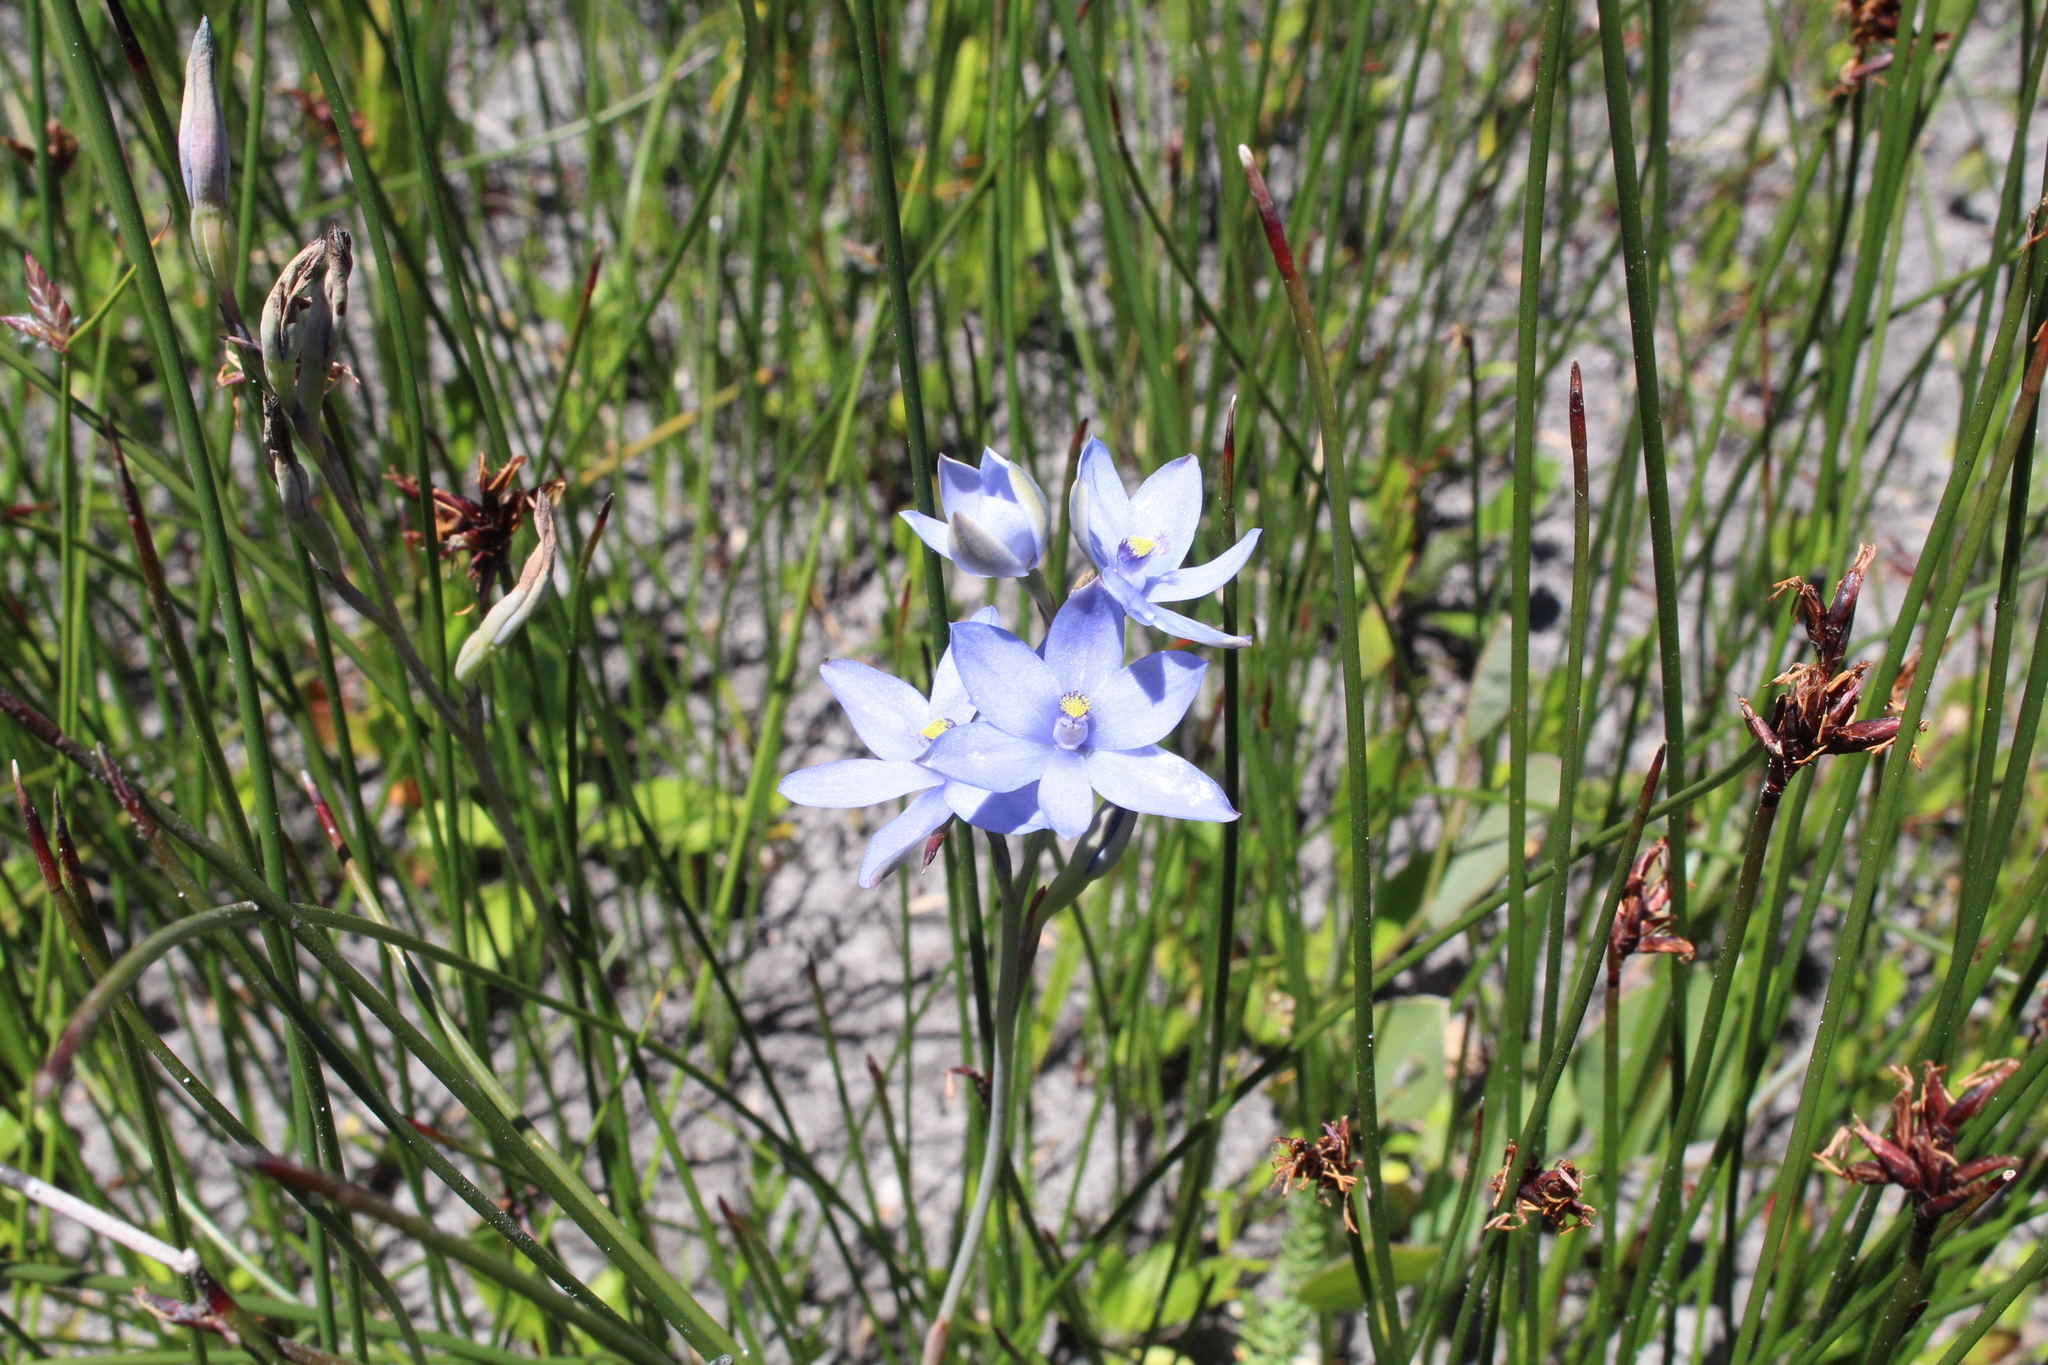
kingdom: Plantae
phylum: Tracheophyta
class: Liliopsida
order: Asparagales
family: Orchidaceae
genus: Thelymitra
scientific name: Thelymitra crinita
